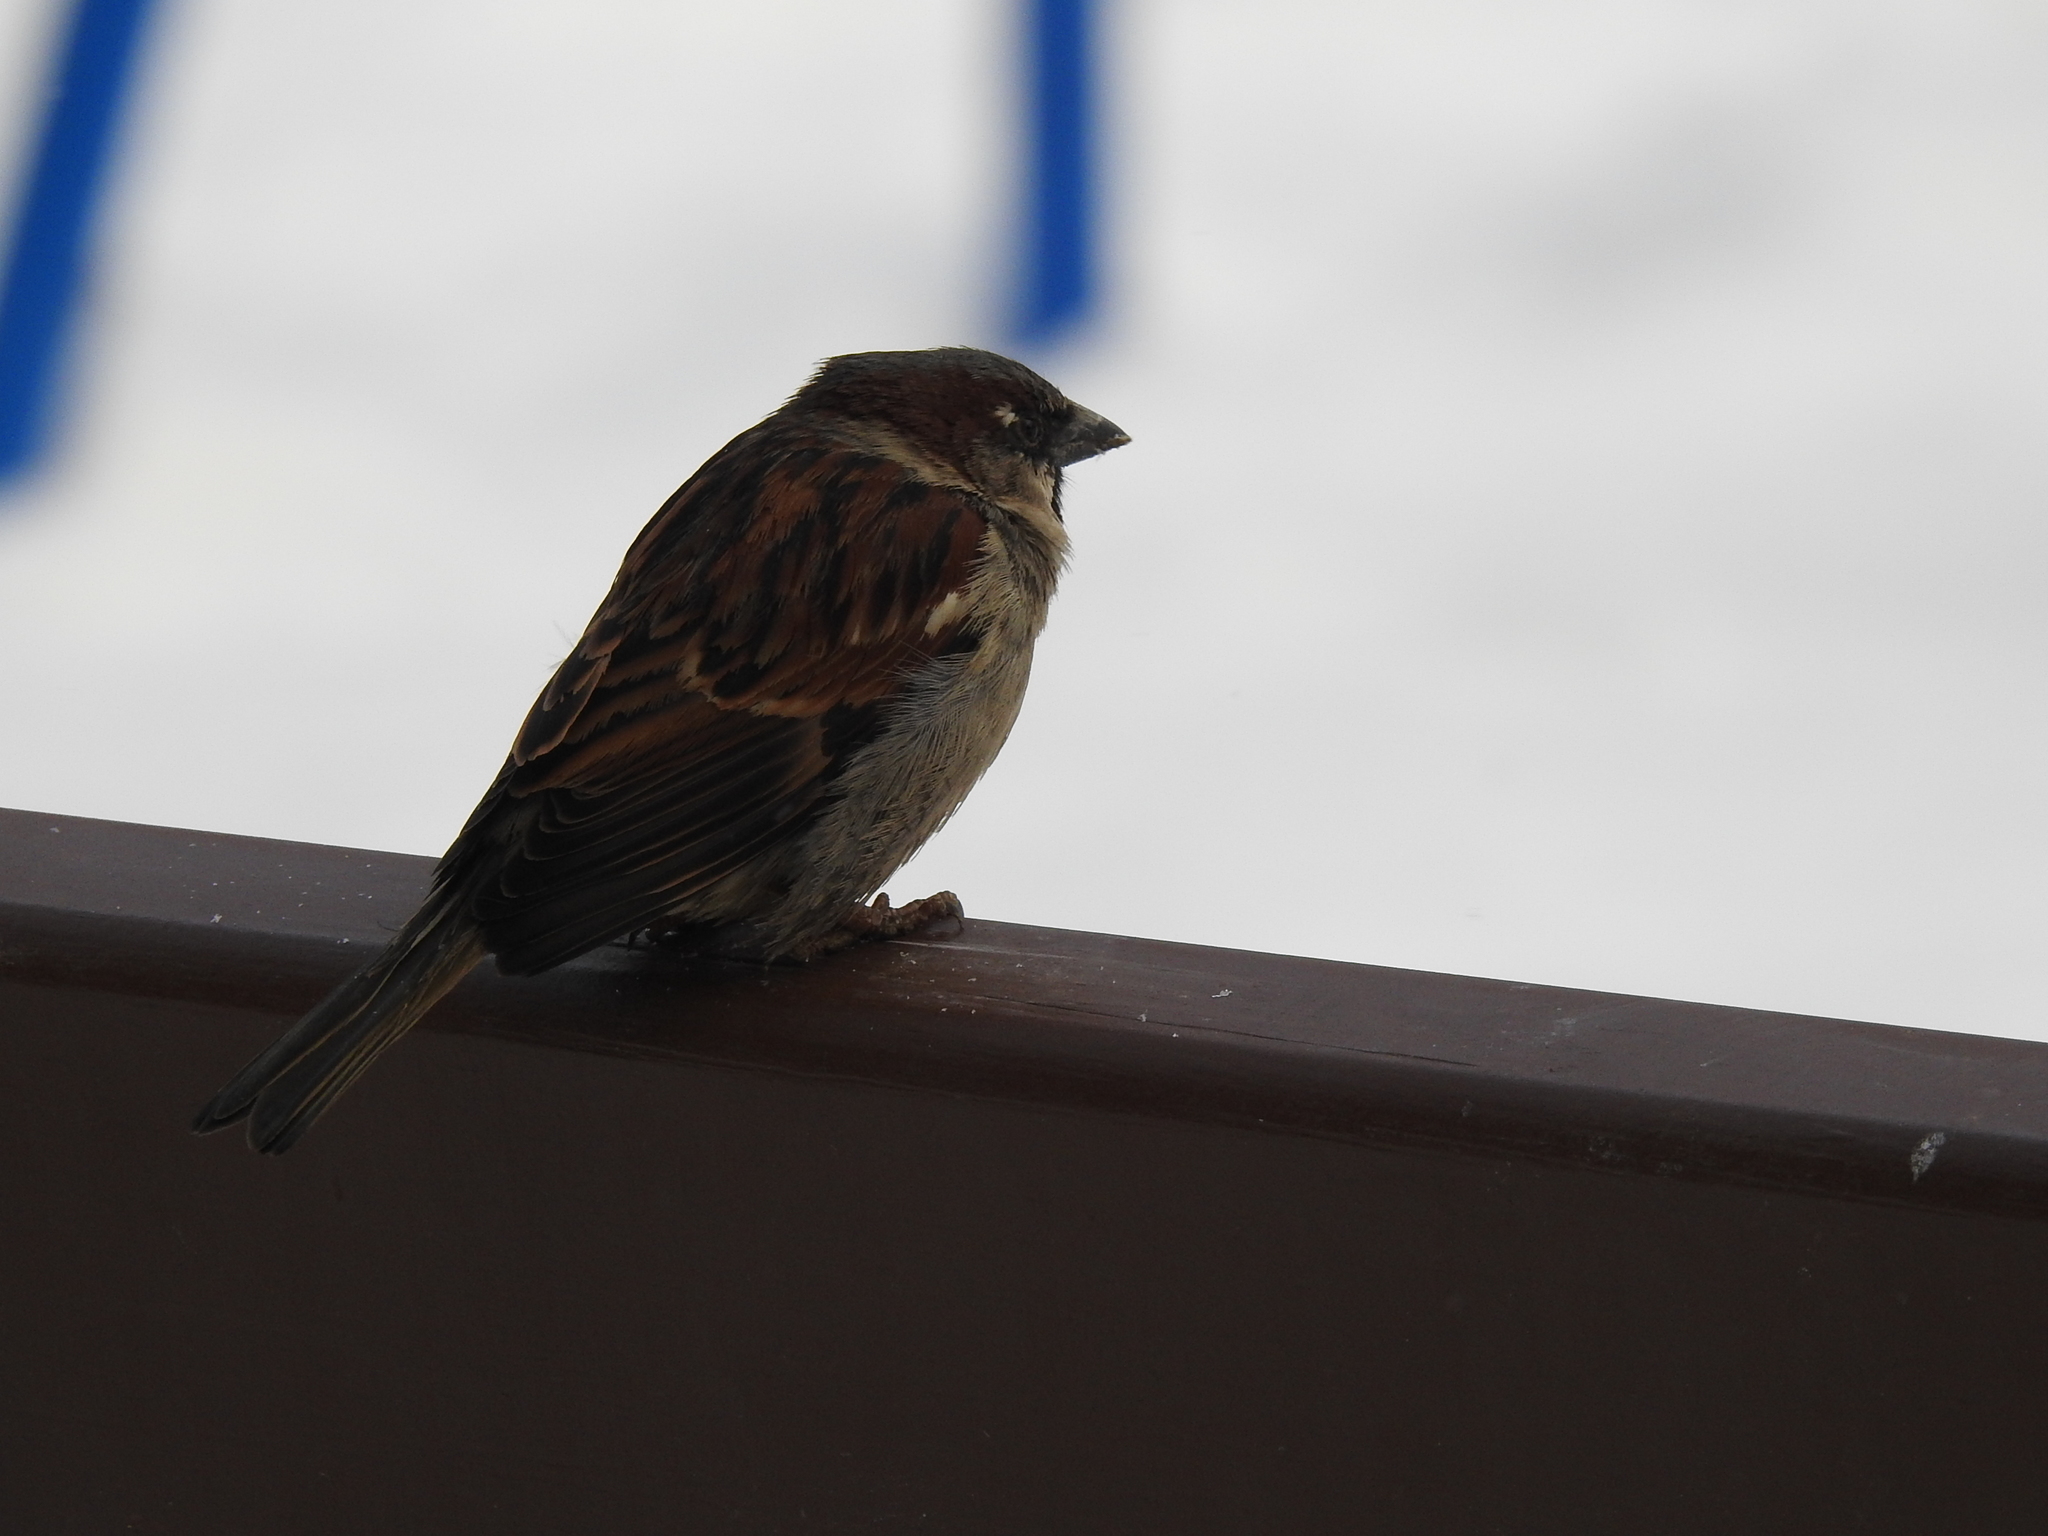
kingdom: Animalia
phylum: Chordata
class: Aves
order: Passeriformes
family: Passeridae
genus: Passer
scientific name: Passer domesticus
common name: House sparrow
